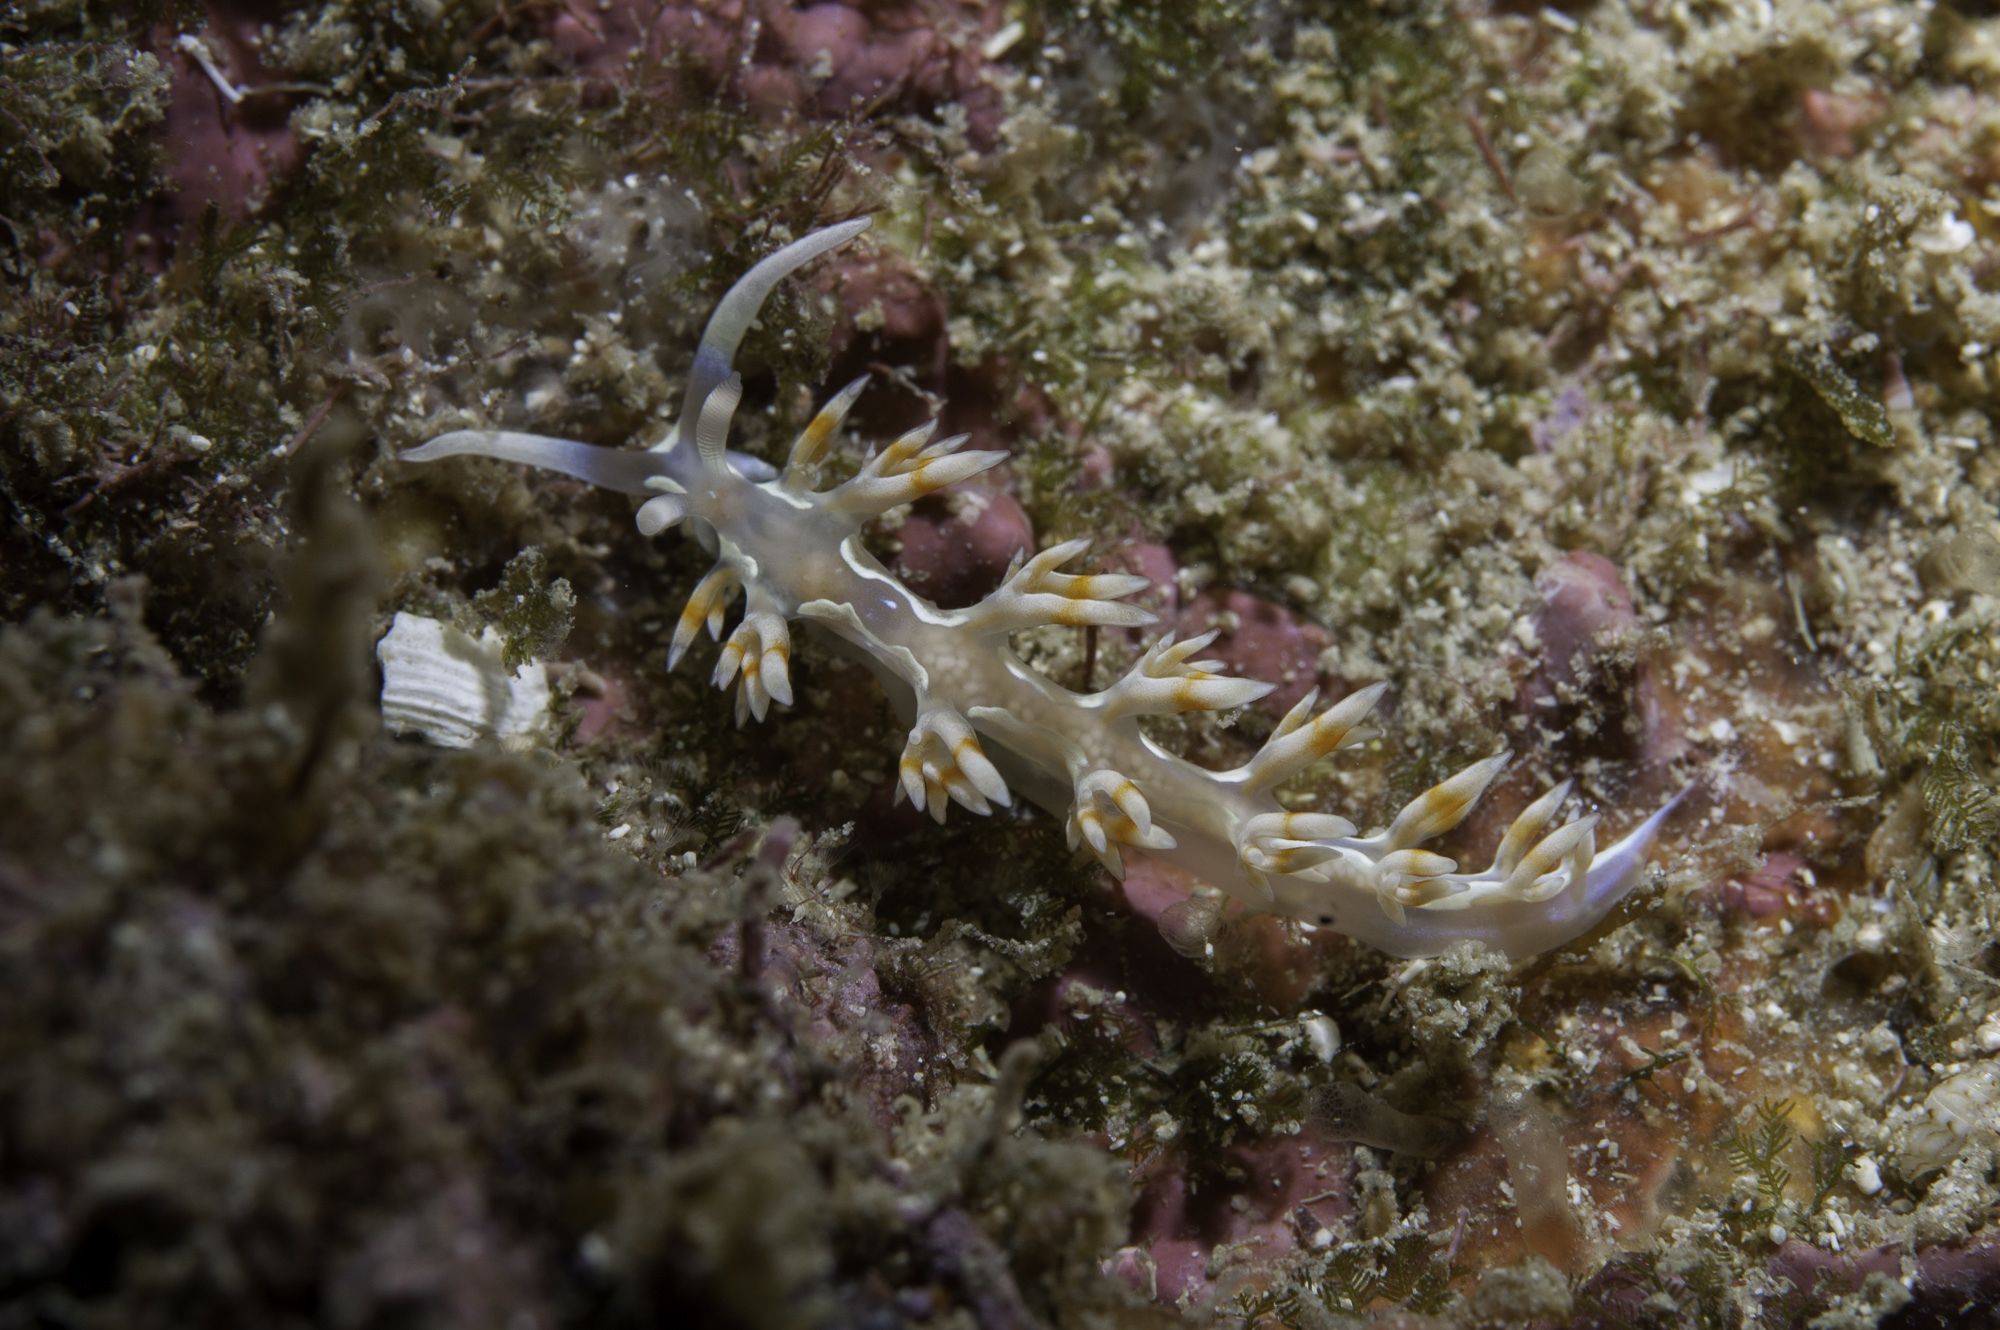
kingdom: Animalia
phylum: Mollusca
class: Gastropoda
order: Nudibranchia
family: Flabellinidae
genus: Flabellina
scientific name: Flabellina engeli
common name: Engel's flabellina
